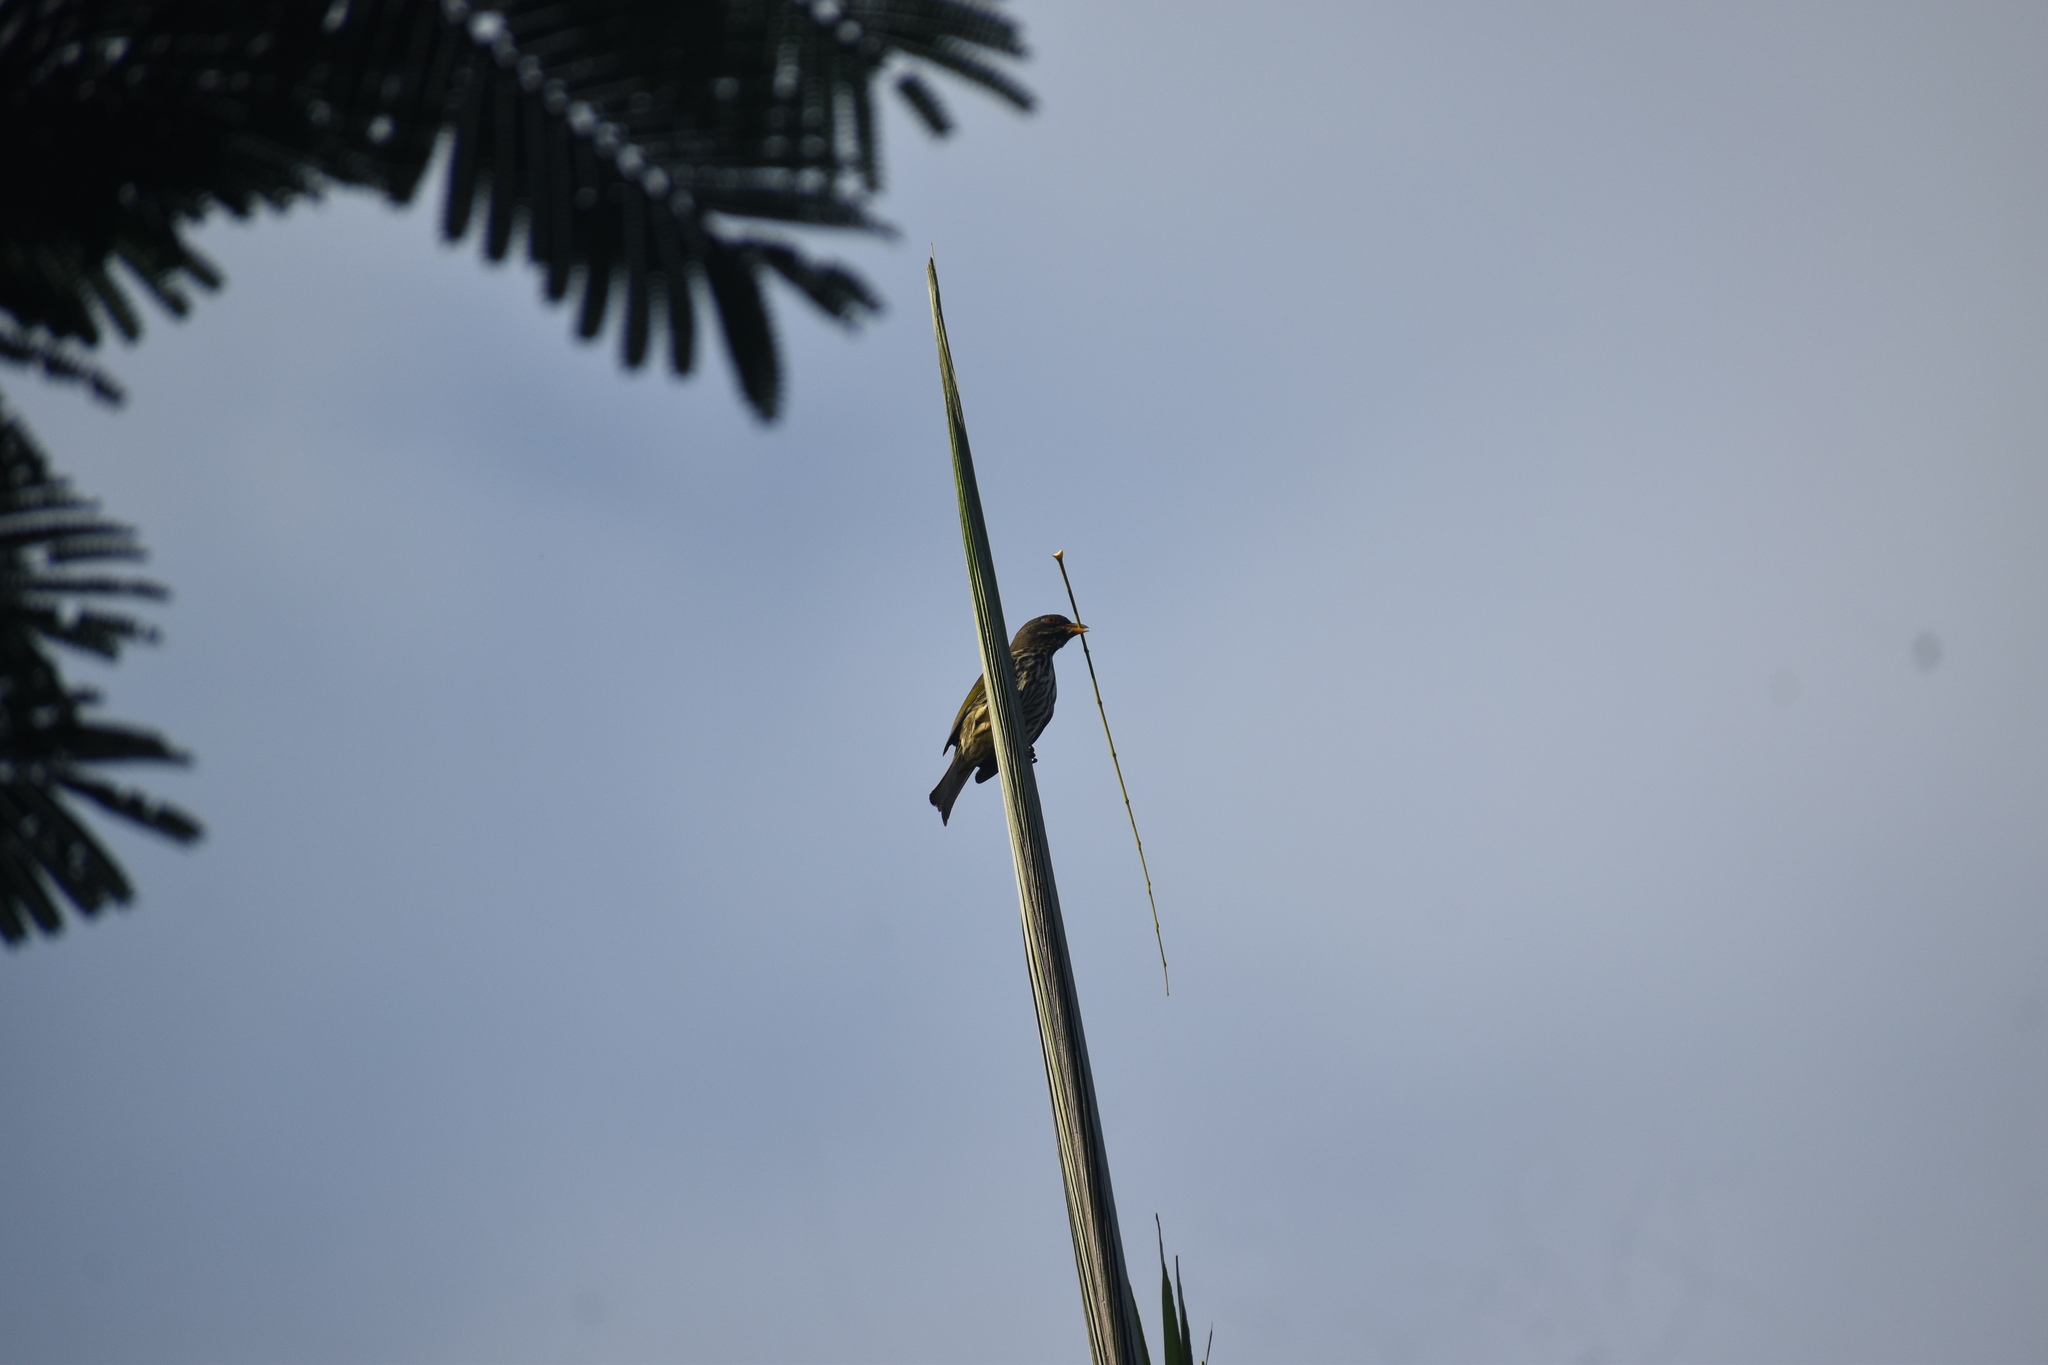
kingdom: Animalia
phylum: Chordata
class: Aves
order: Passeriformes
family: Dulidae
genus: Dulus
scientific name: Dulus dominicus
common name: Palmchat
